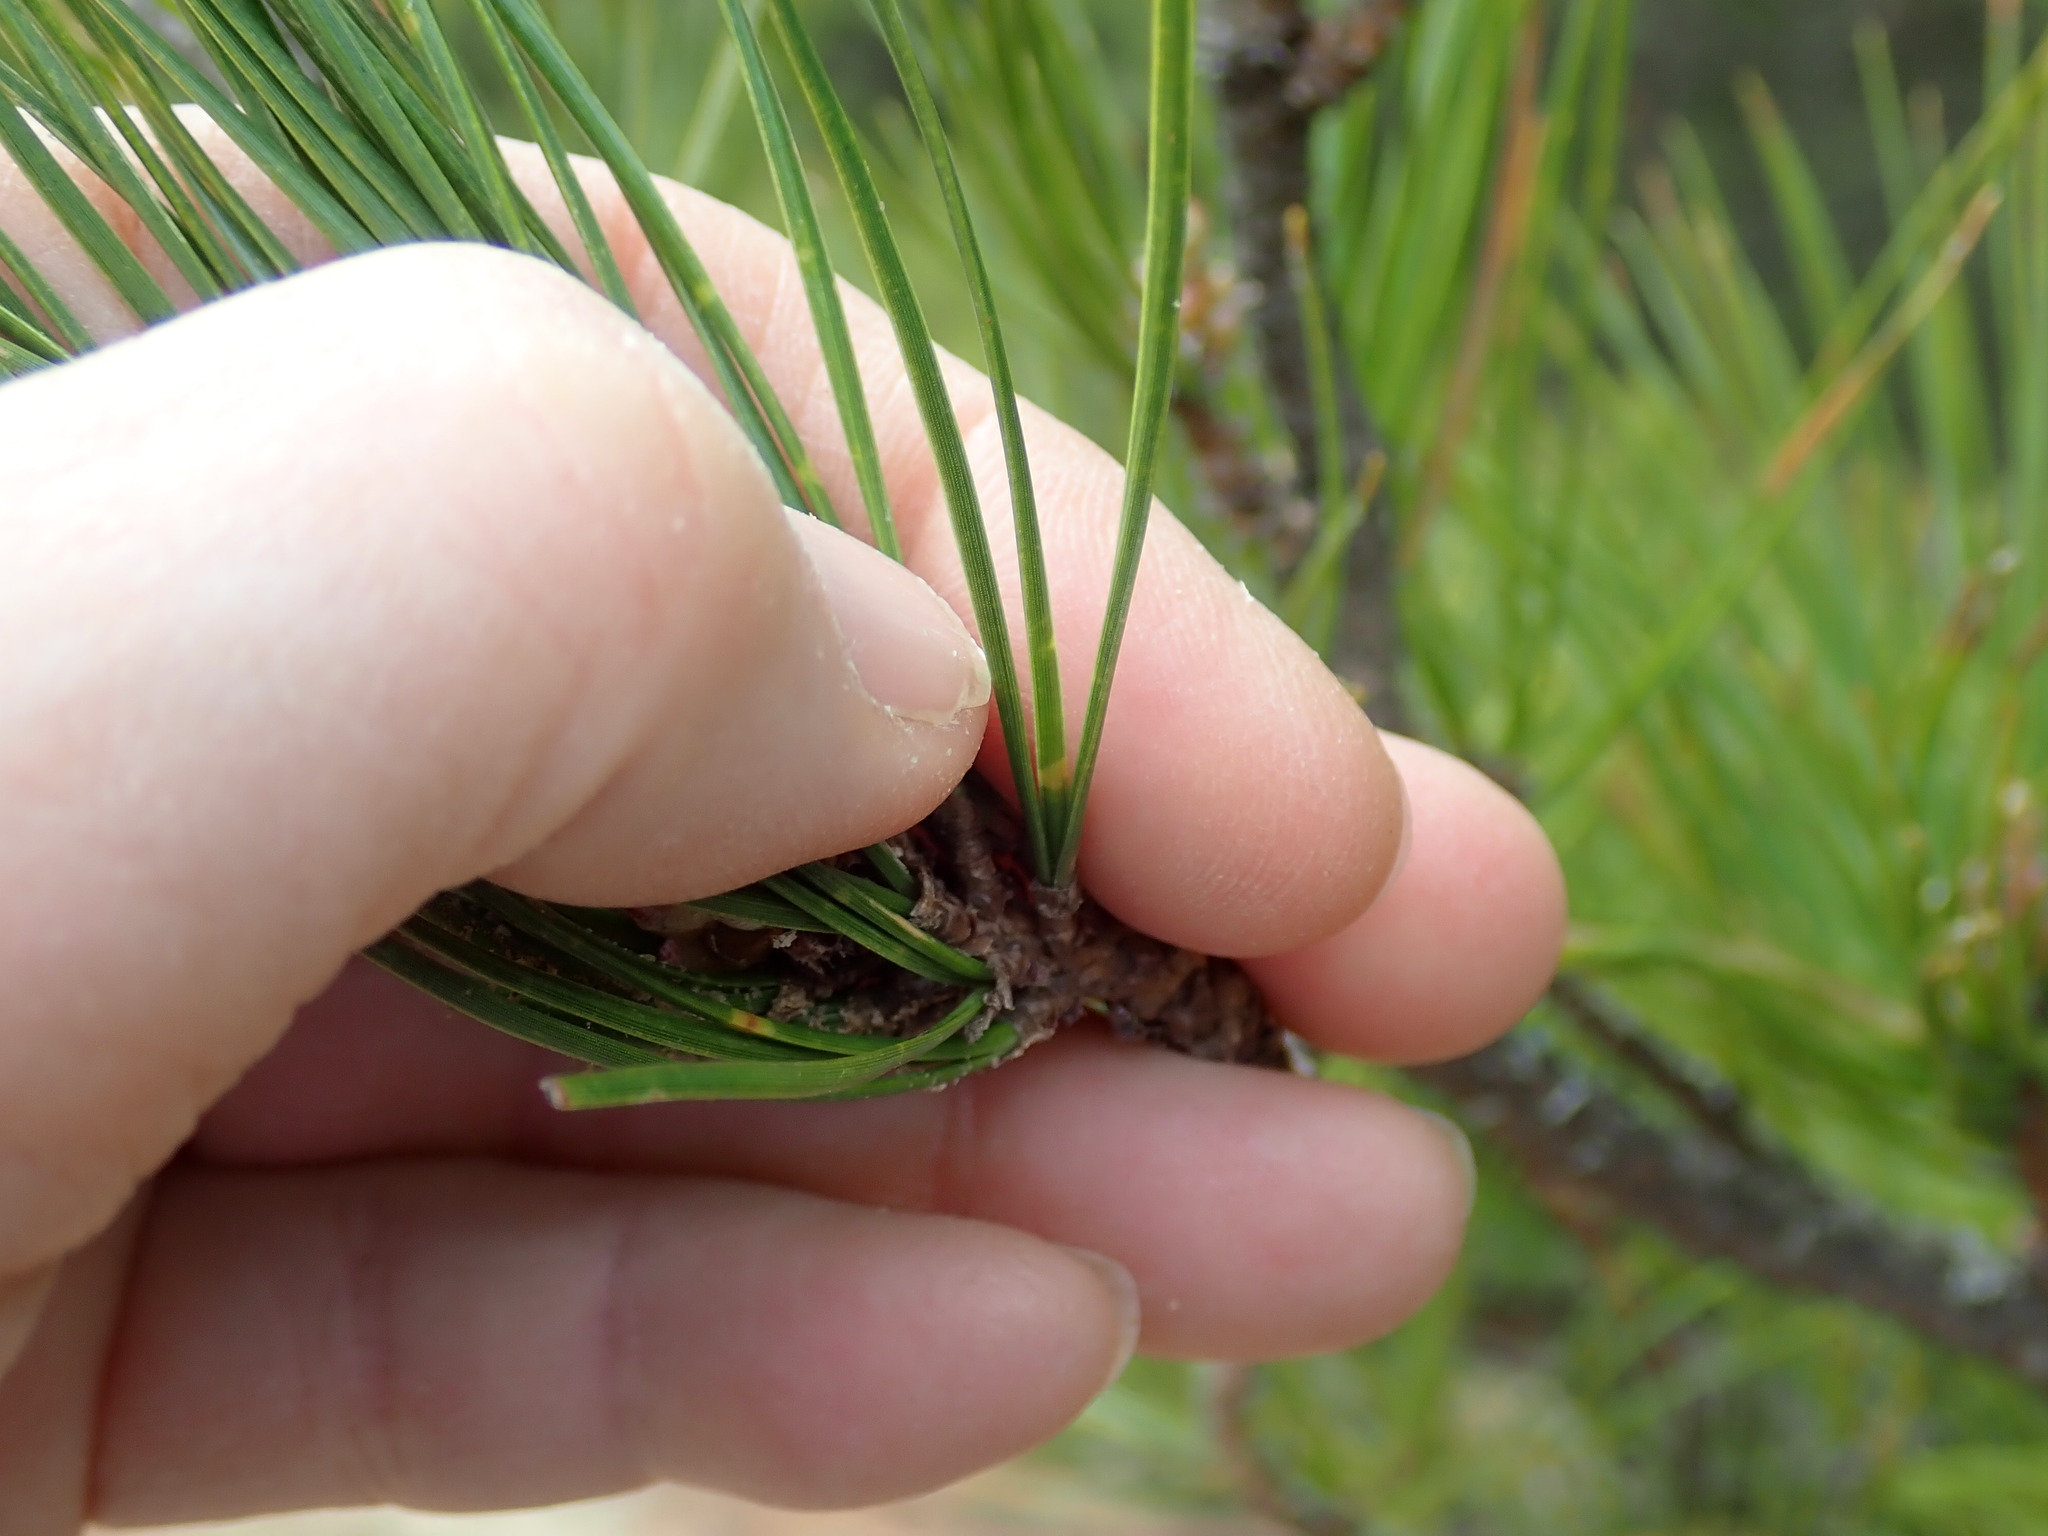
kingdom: Plantae
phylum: Tracheophyta
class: Pinopsida
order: Pinales
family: Pinaceae
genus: Pinus
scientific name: Pinus rigida
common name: Pitch pine
